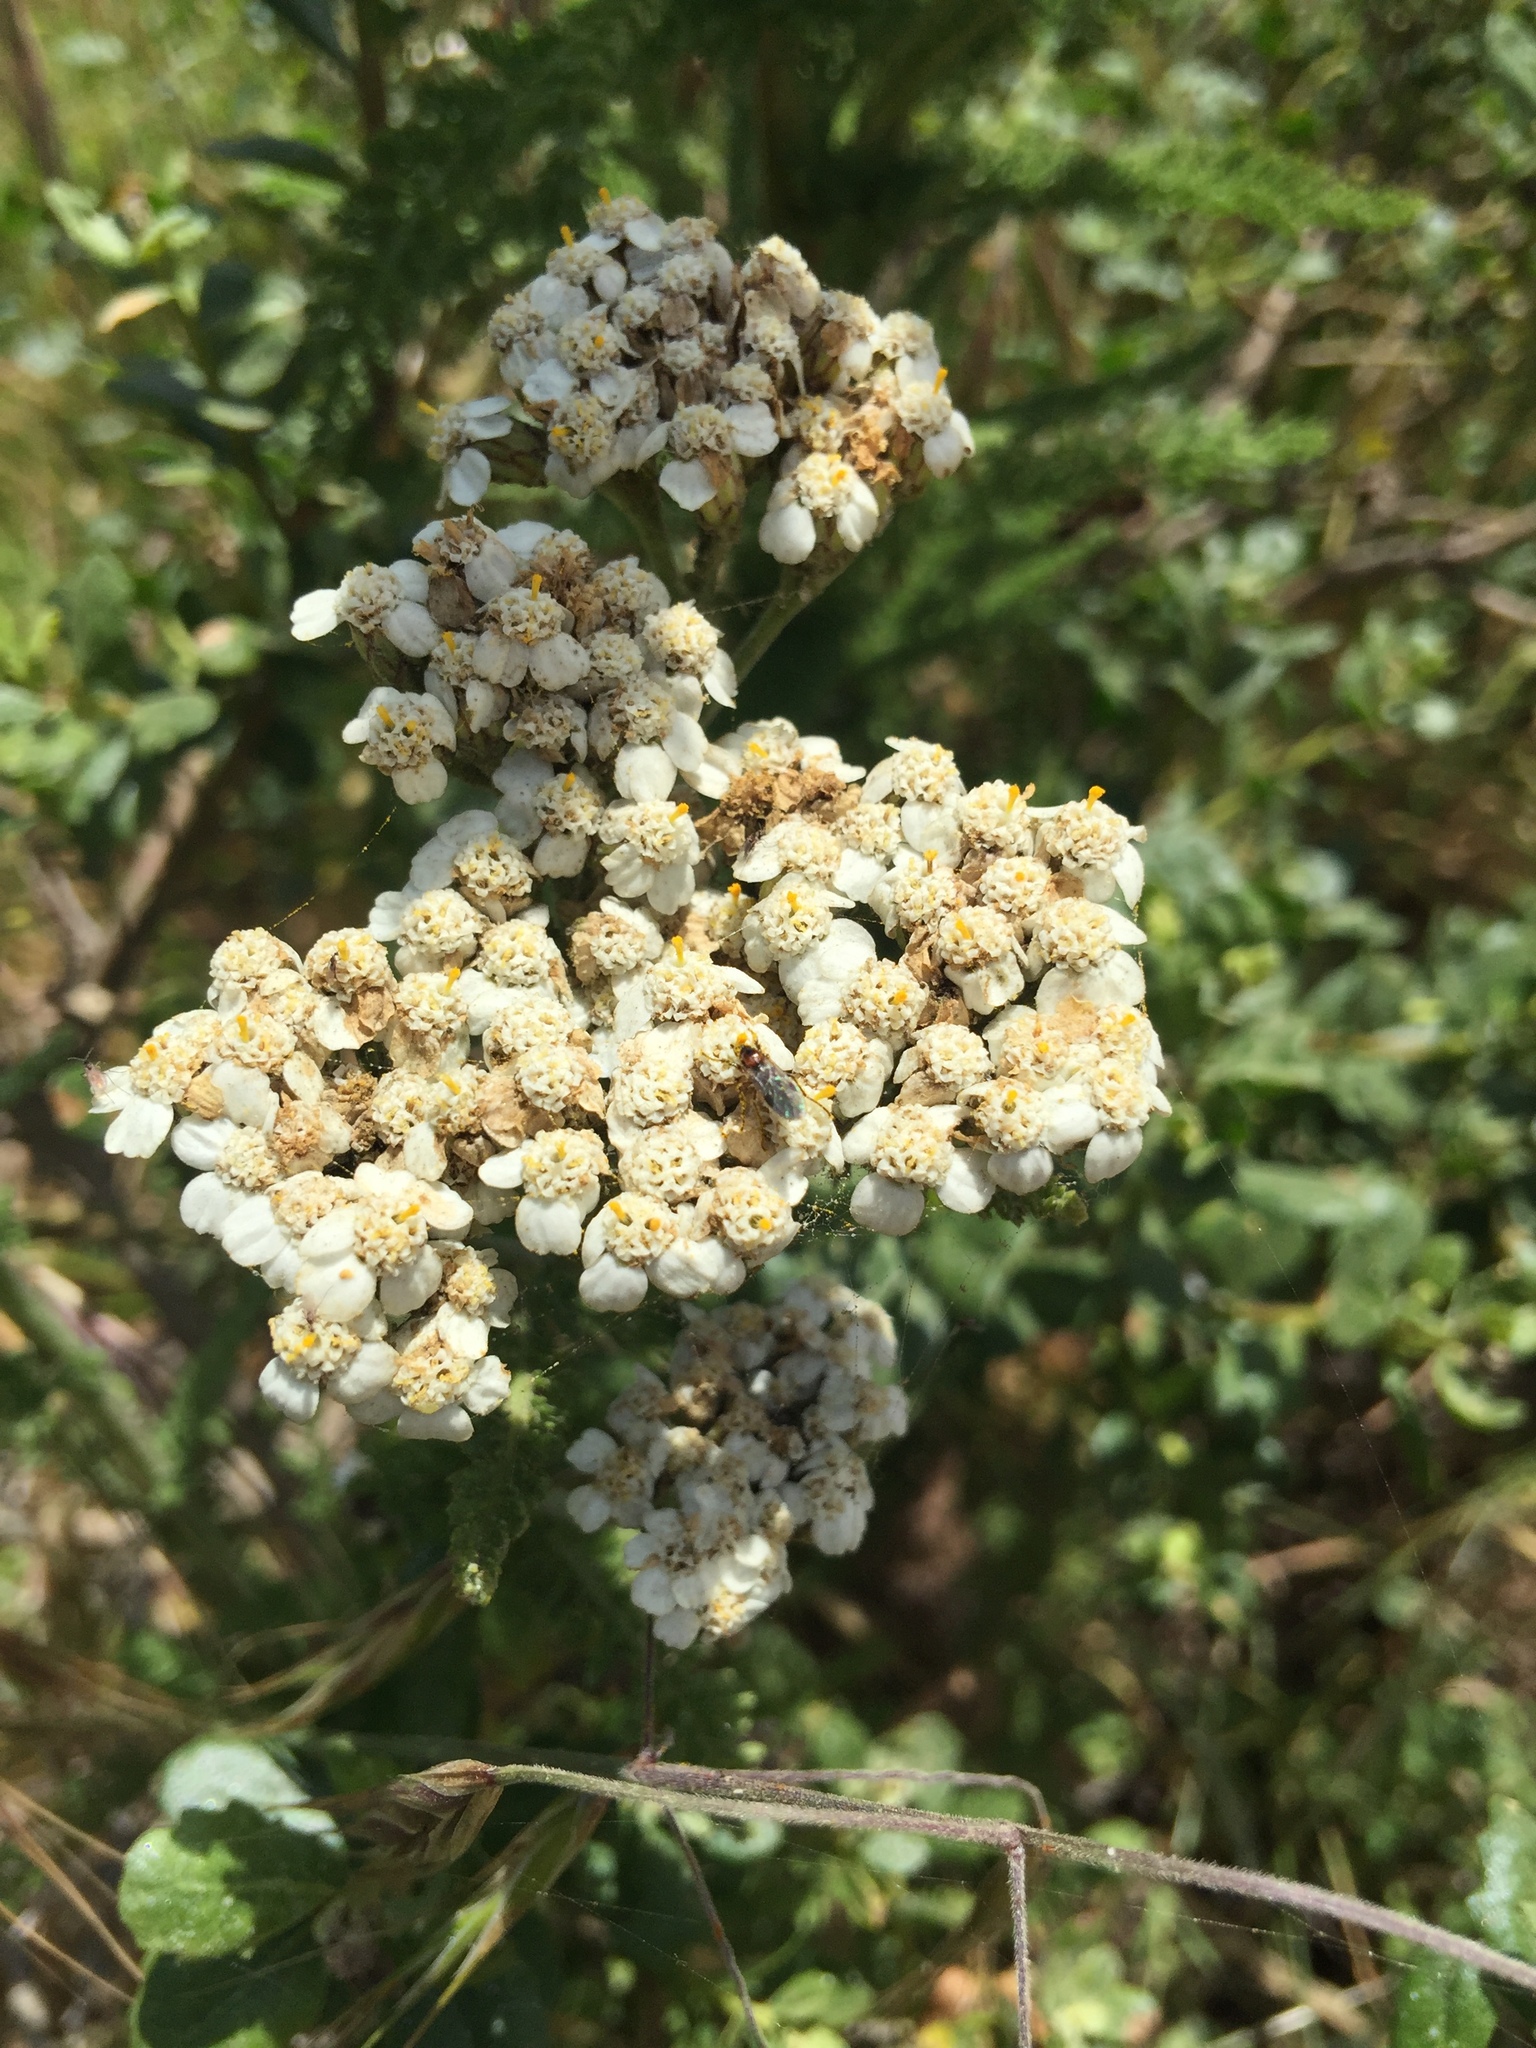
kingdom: Plantae
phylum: Tracheophyta
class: Magnoliopsida
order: Asterales
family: Asteraceae
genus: Achillea
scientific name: Achillea millefolium
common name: Yarrow
